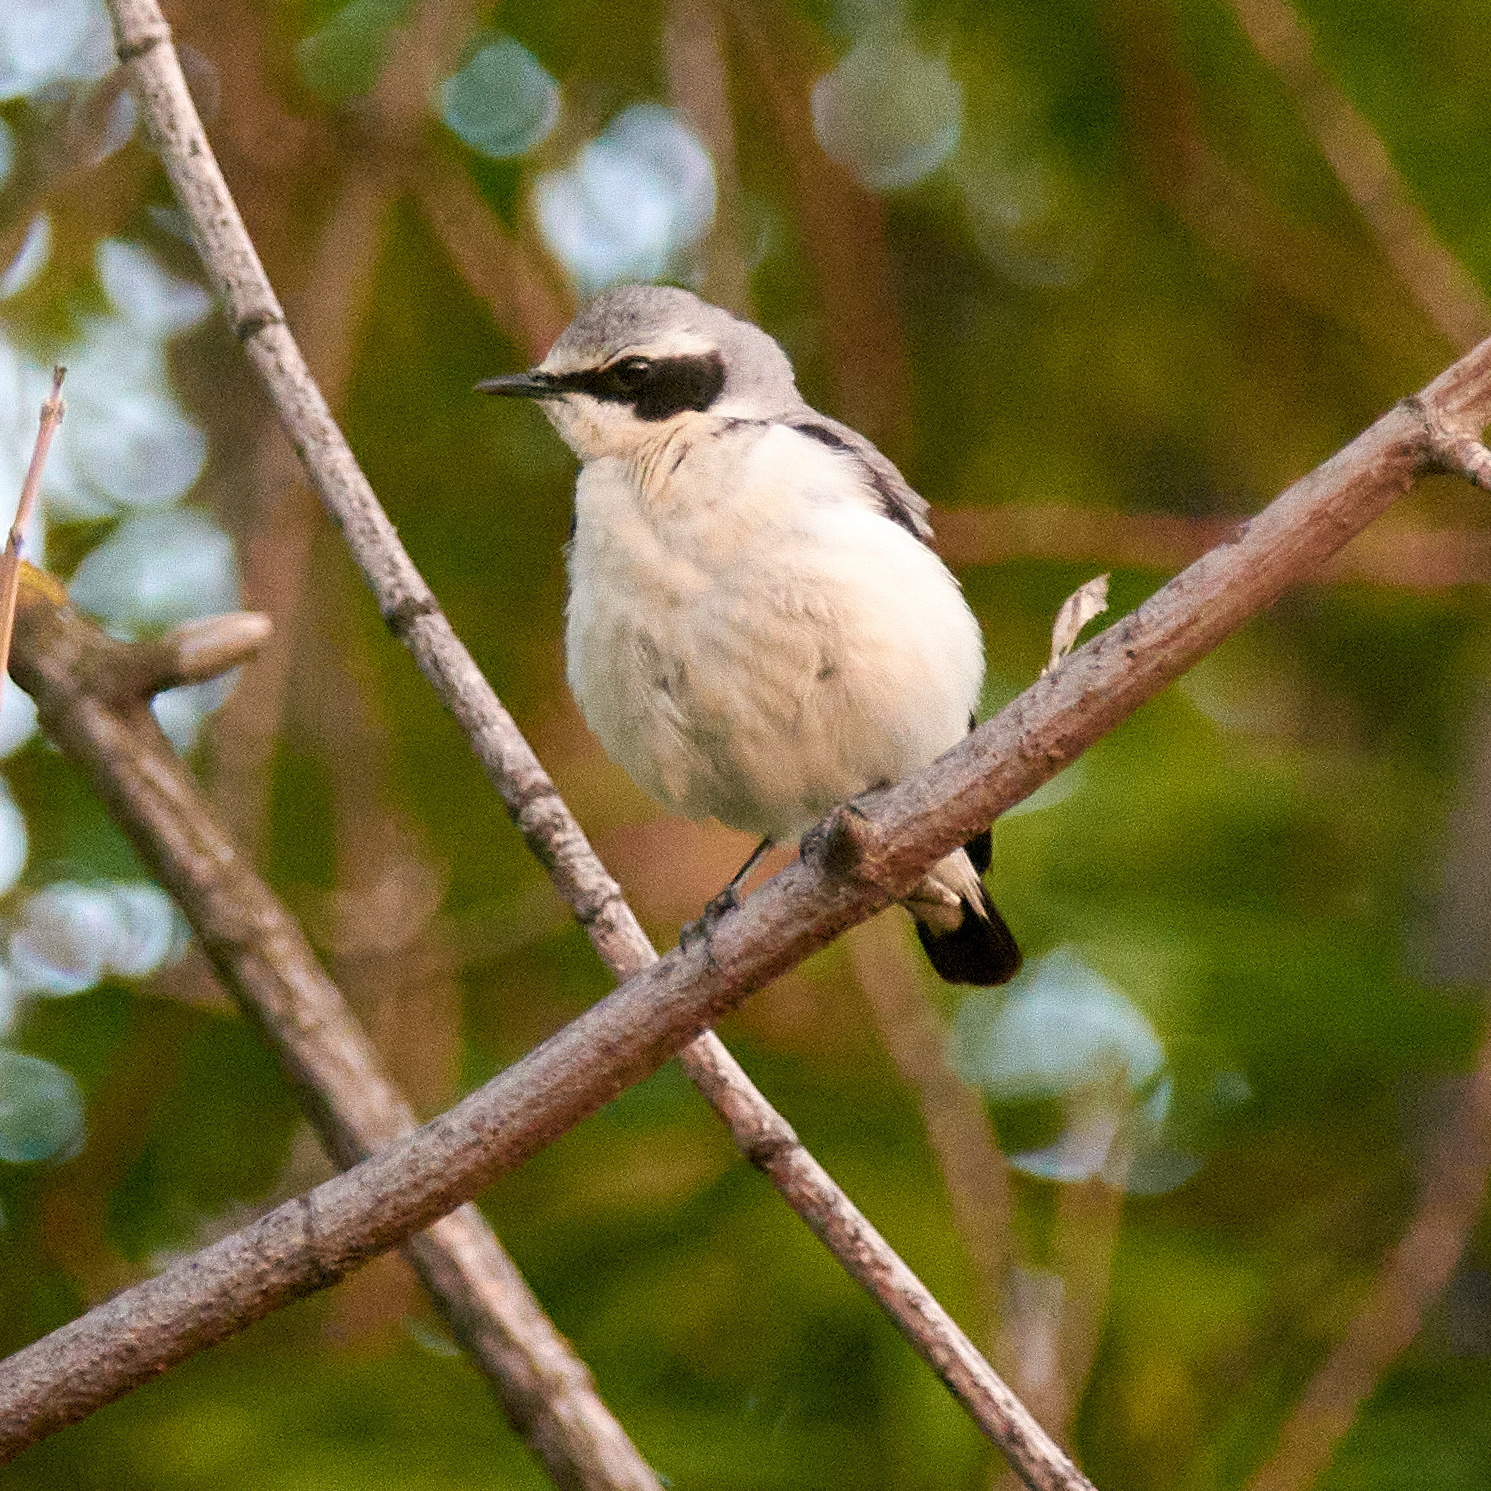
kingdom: Animalia
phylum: Chordata
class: Aves
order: Passeriformes
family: Muscicapidae
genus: Oenanthe
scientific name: Oenanthe oenanthe
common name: Northern wheatear
